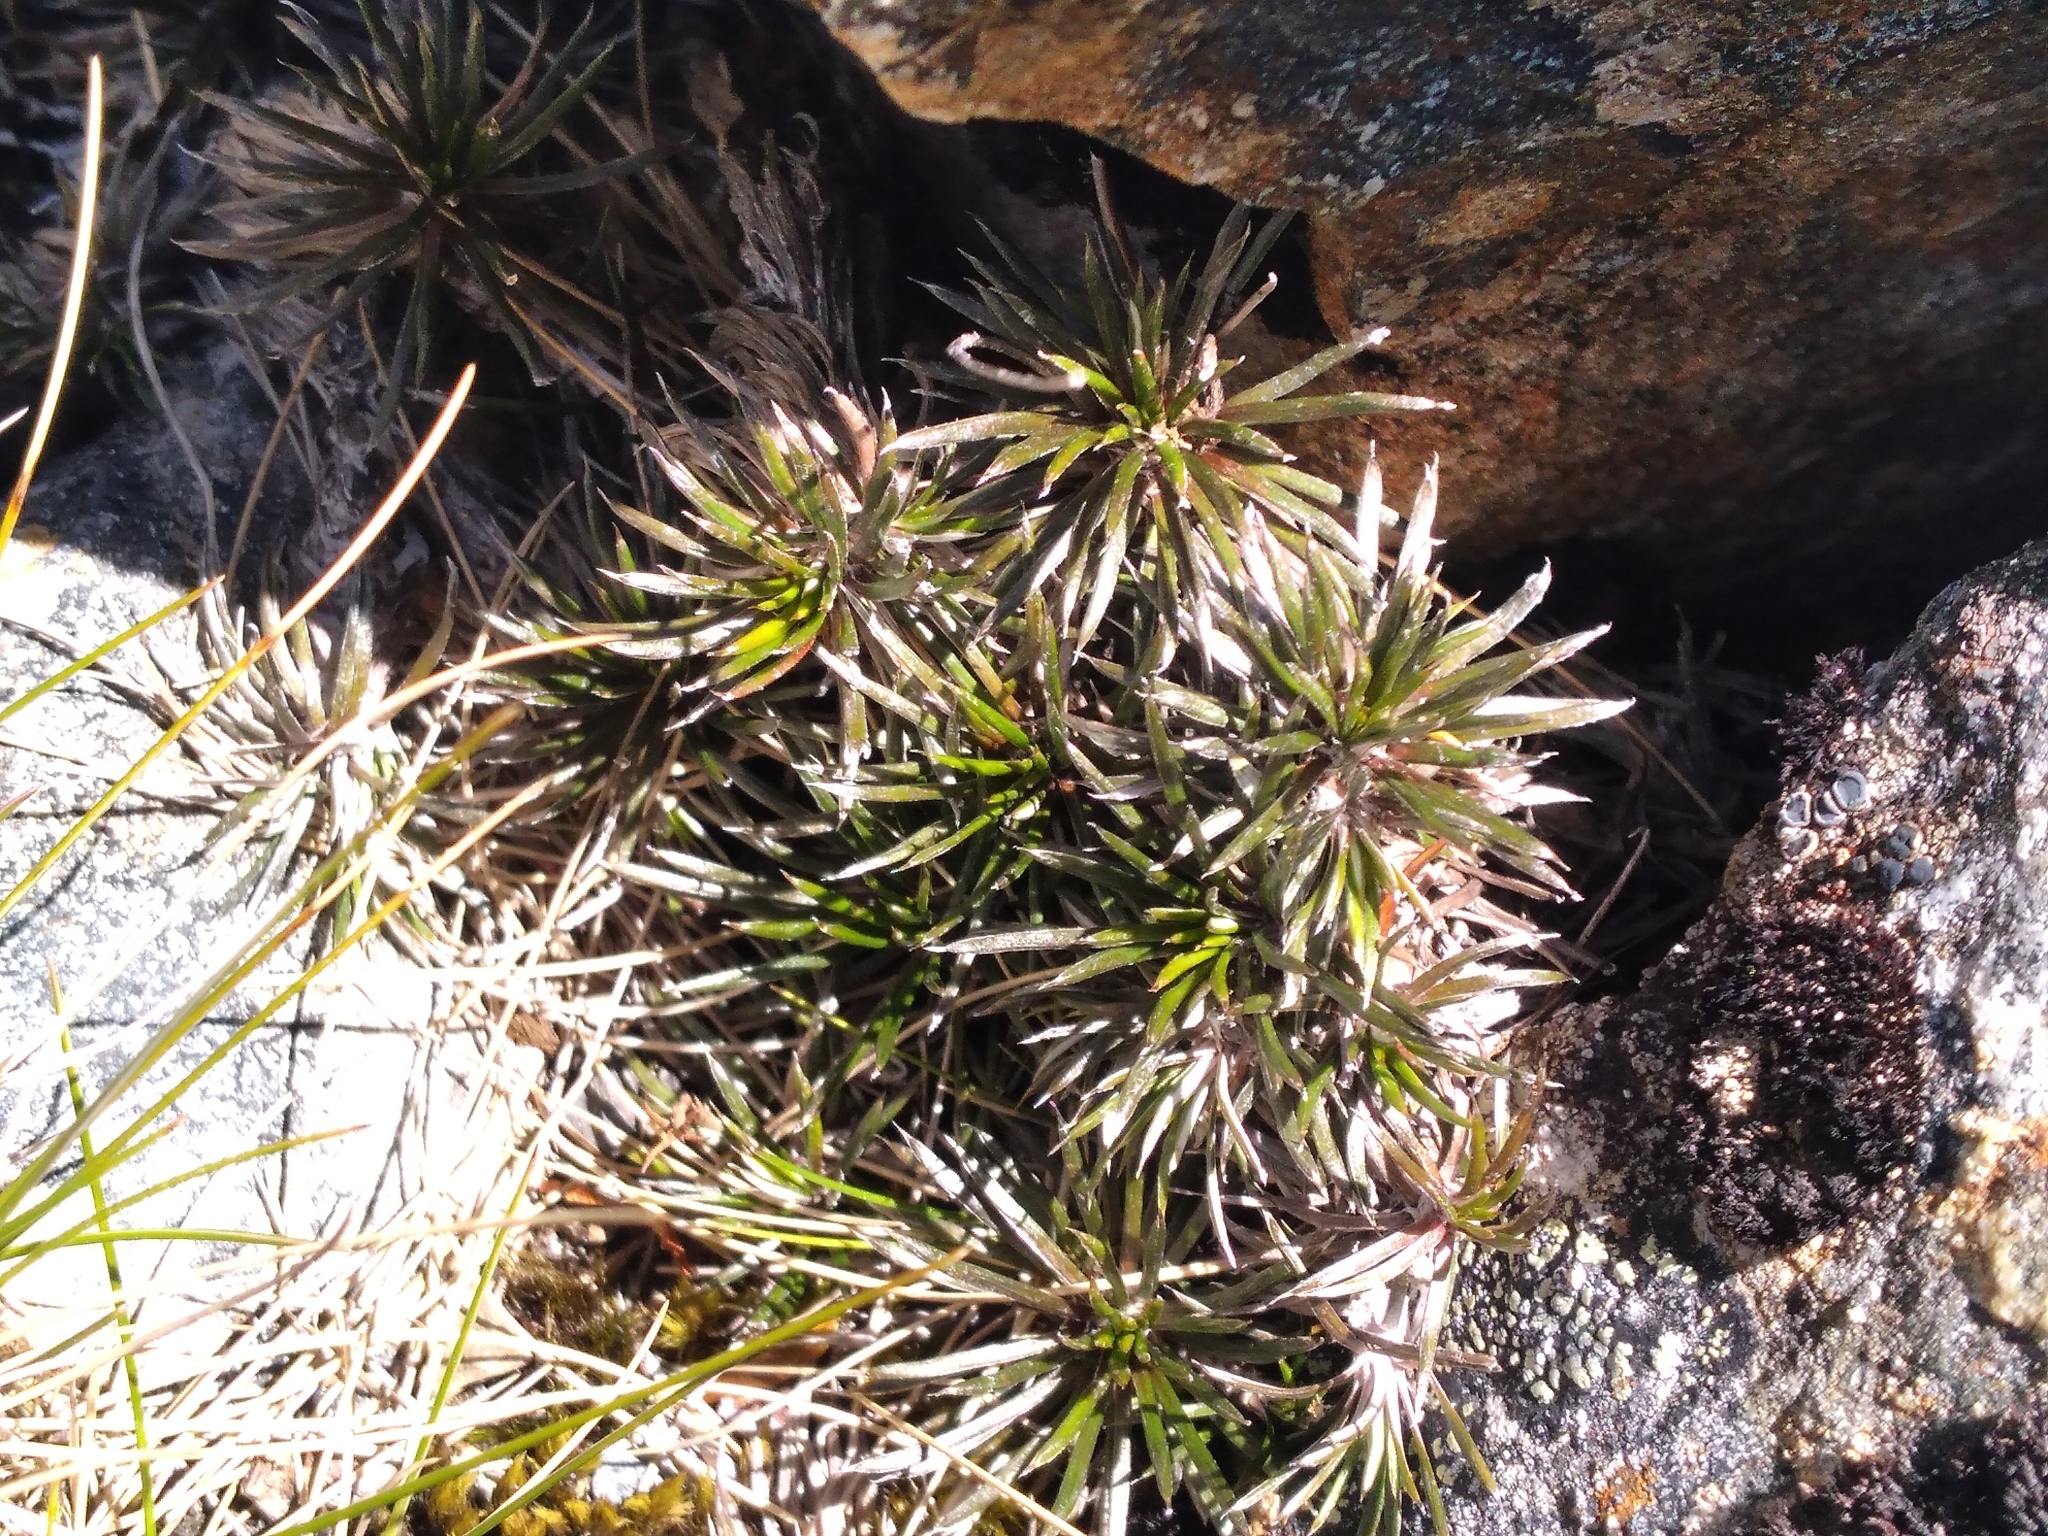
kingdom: Plantae
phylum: Tracheophyta
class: Magnoliopsida
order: Asterales
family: Asteraceae
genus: Celmisia
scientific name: Celmisia laricifolia
